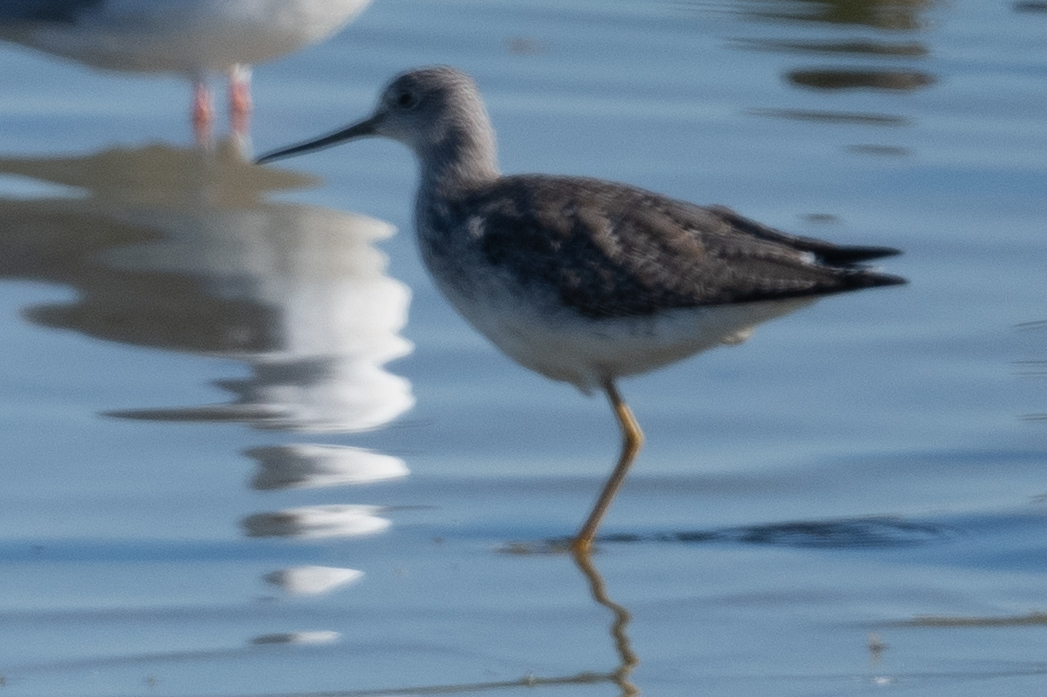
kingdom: Animalia
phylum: Chordata
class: Aves
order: Charadriiformes
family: Scolopacidae
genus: Tringa
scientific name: Tringa melanoleuca
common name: Greater yellowlegs
